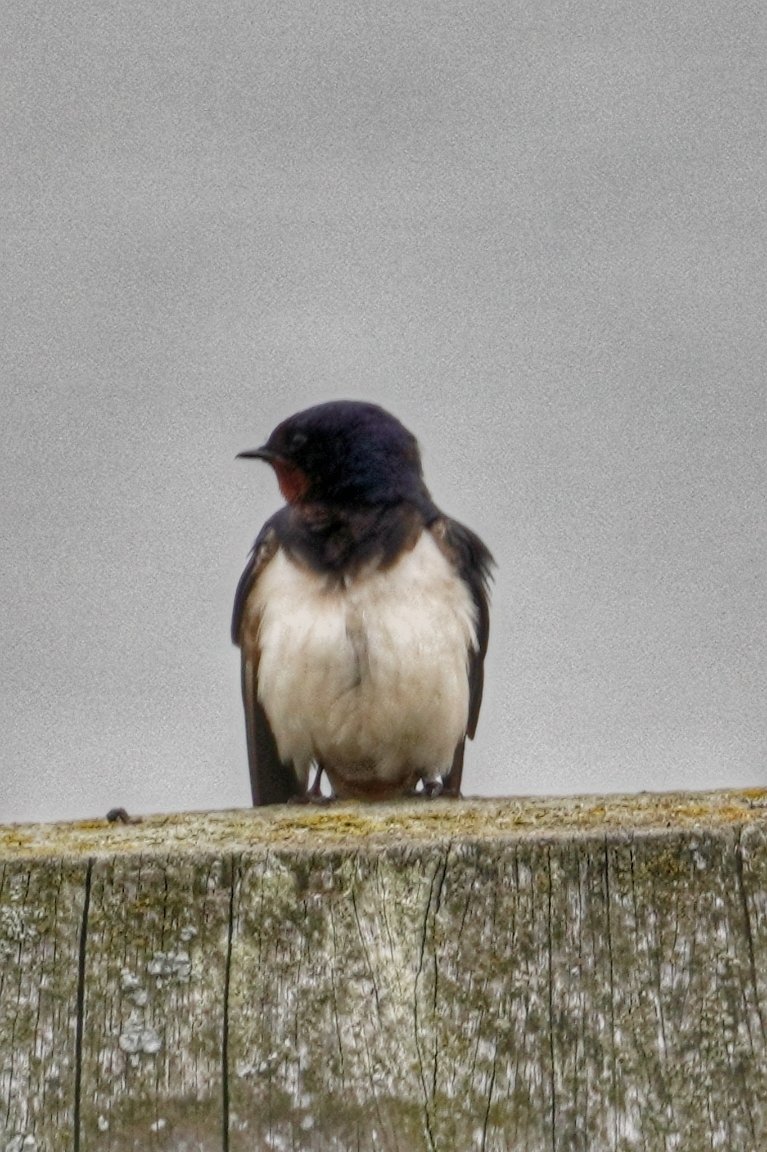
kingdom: Animalia
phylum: Chordata
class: Aves
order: Passeriformes
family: Hirundinidae
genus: Hirundo
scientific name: Hirundo rustica
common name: Barn swallow
